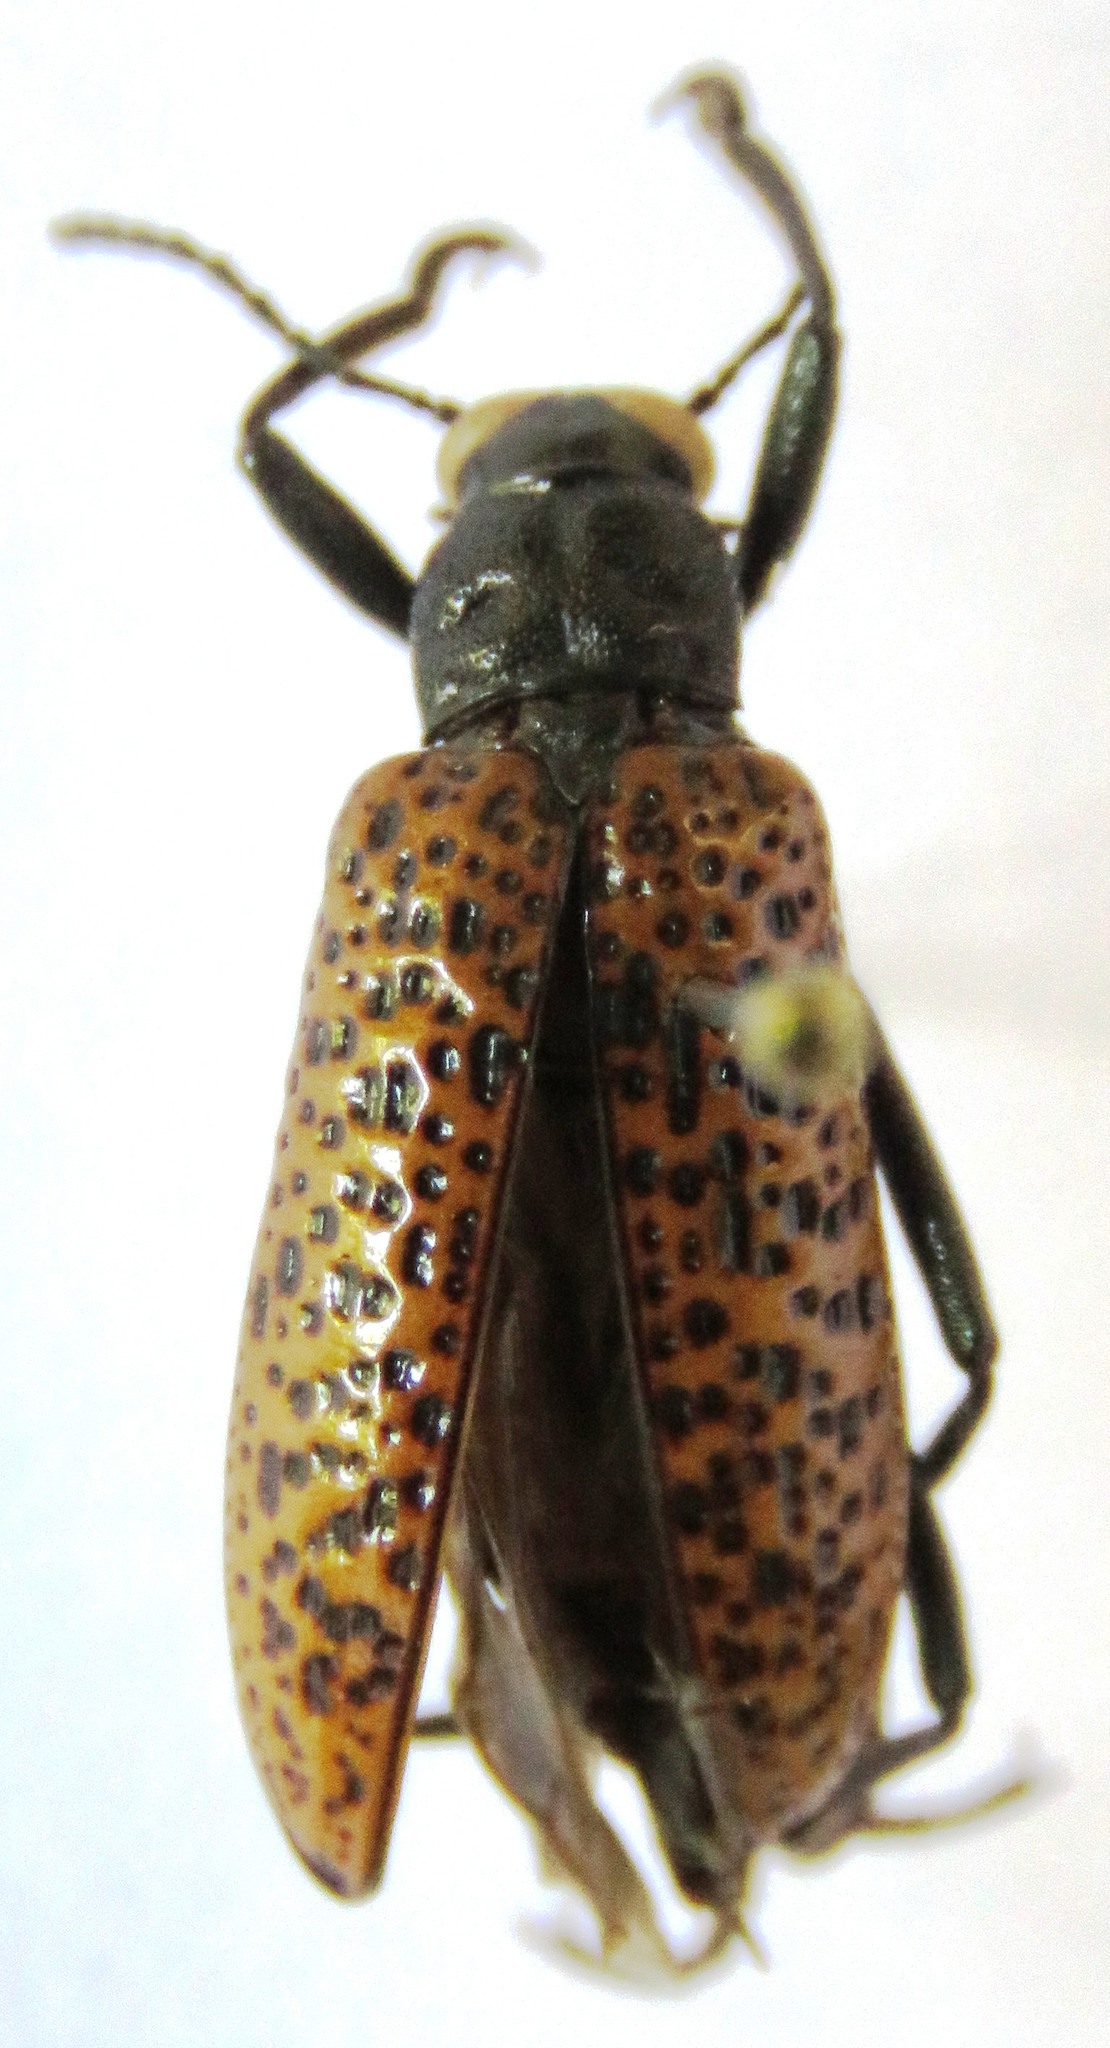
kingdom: Animalia
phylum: Arthropoda
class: Insecta
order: Coleoptera
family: Tenebrionidae
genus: Strongylium
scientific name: Strongylium
